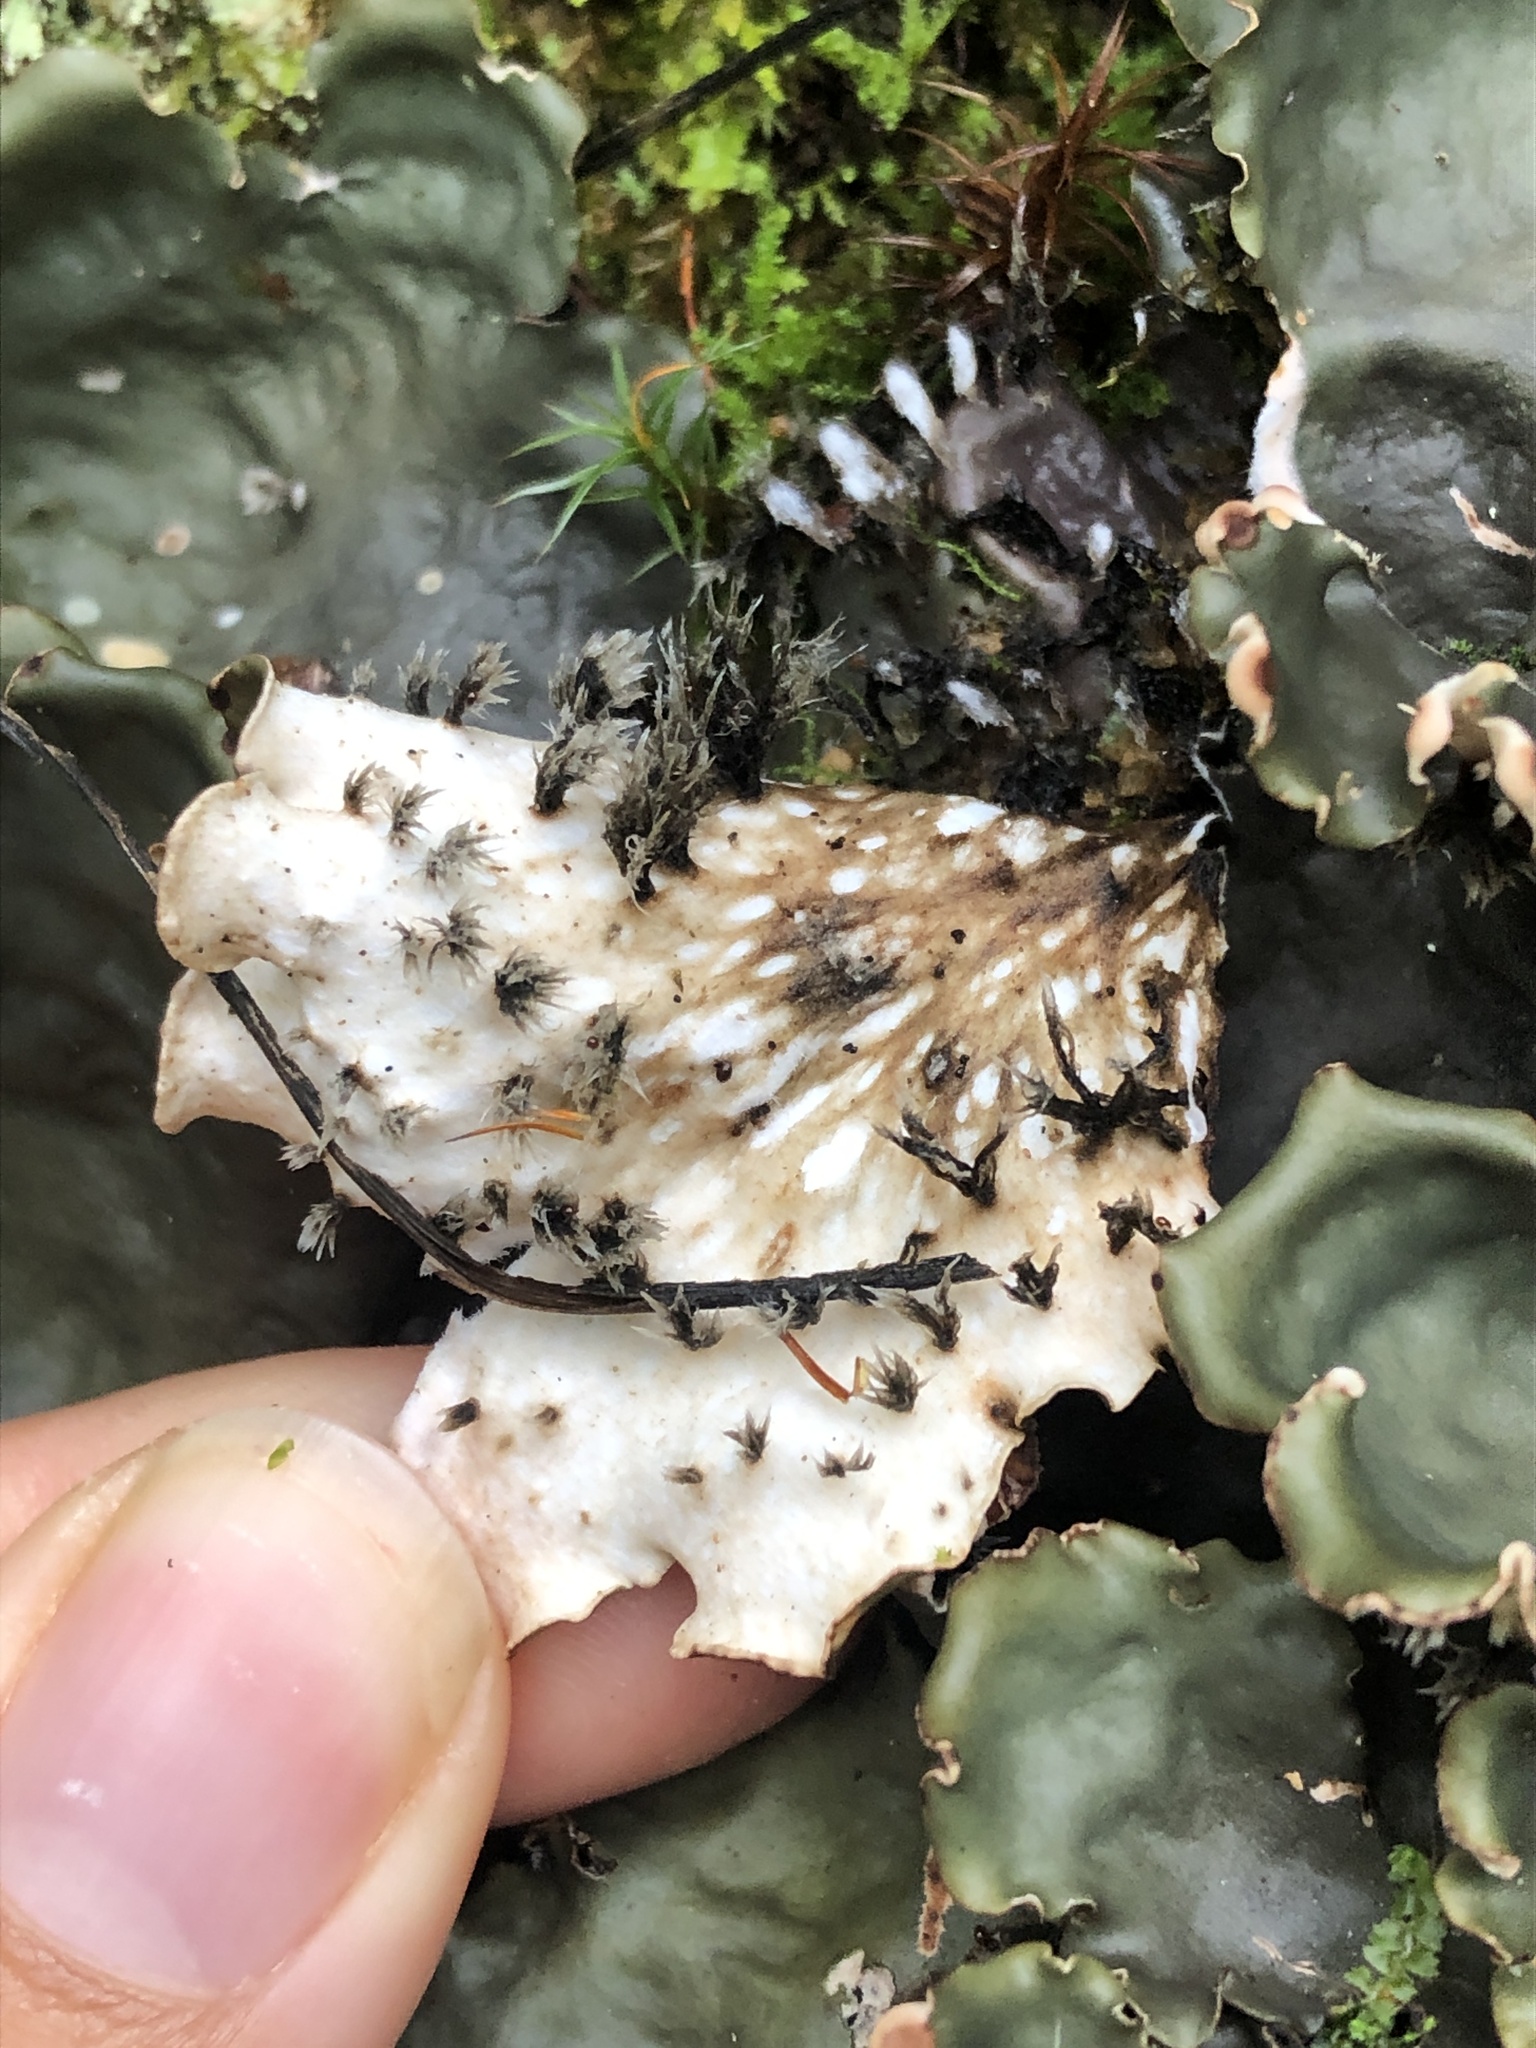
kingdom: Fungi
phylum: Ascomycota
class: Lecanoromycetes
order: Peltigerales
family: Peltigeraceae
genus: Peltigera
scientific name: Peltigera horizontalis
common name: Flat fruited pelt
